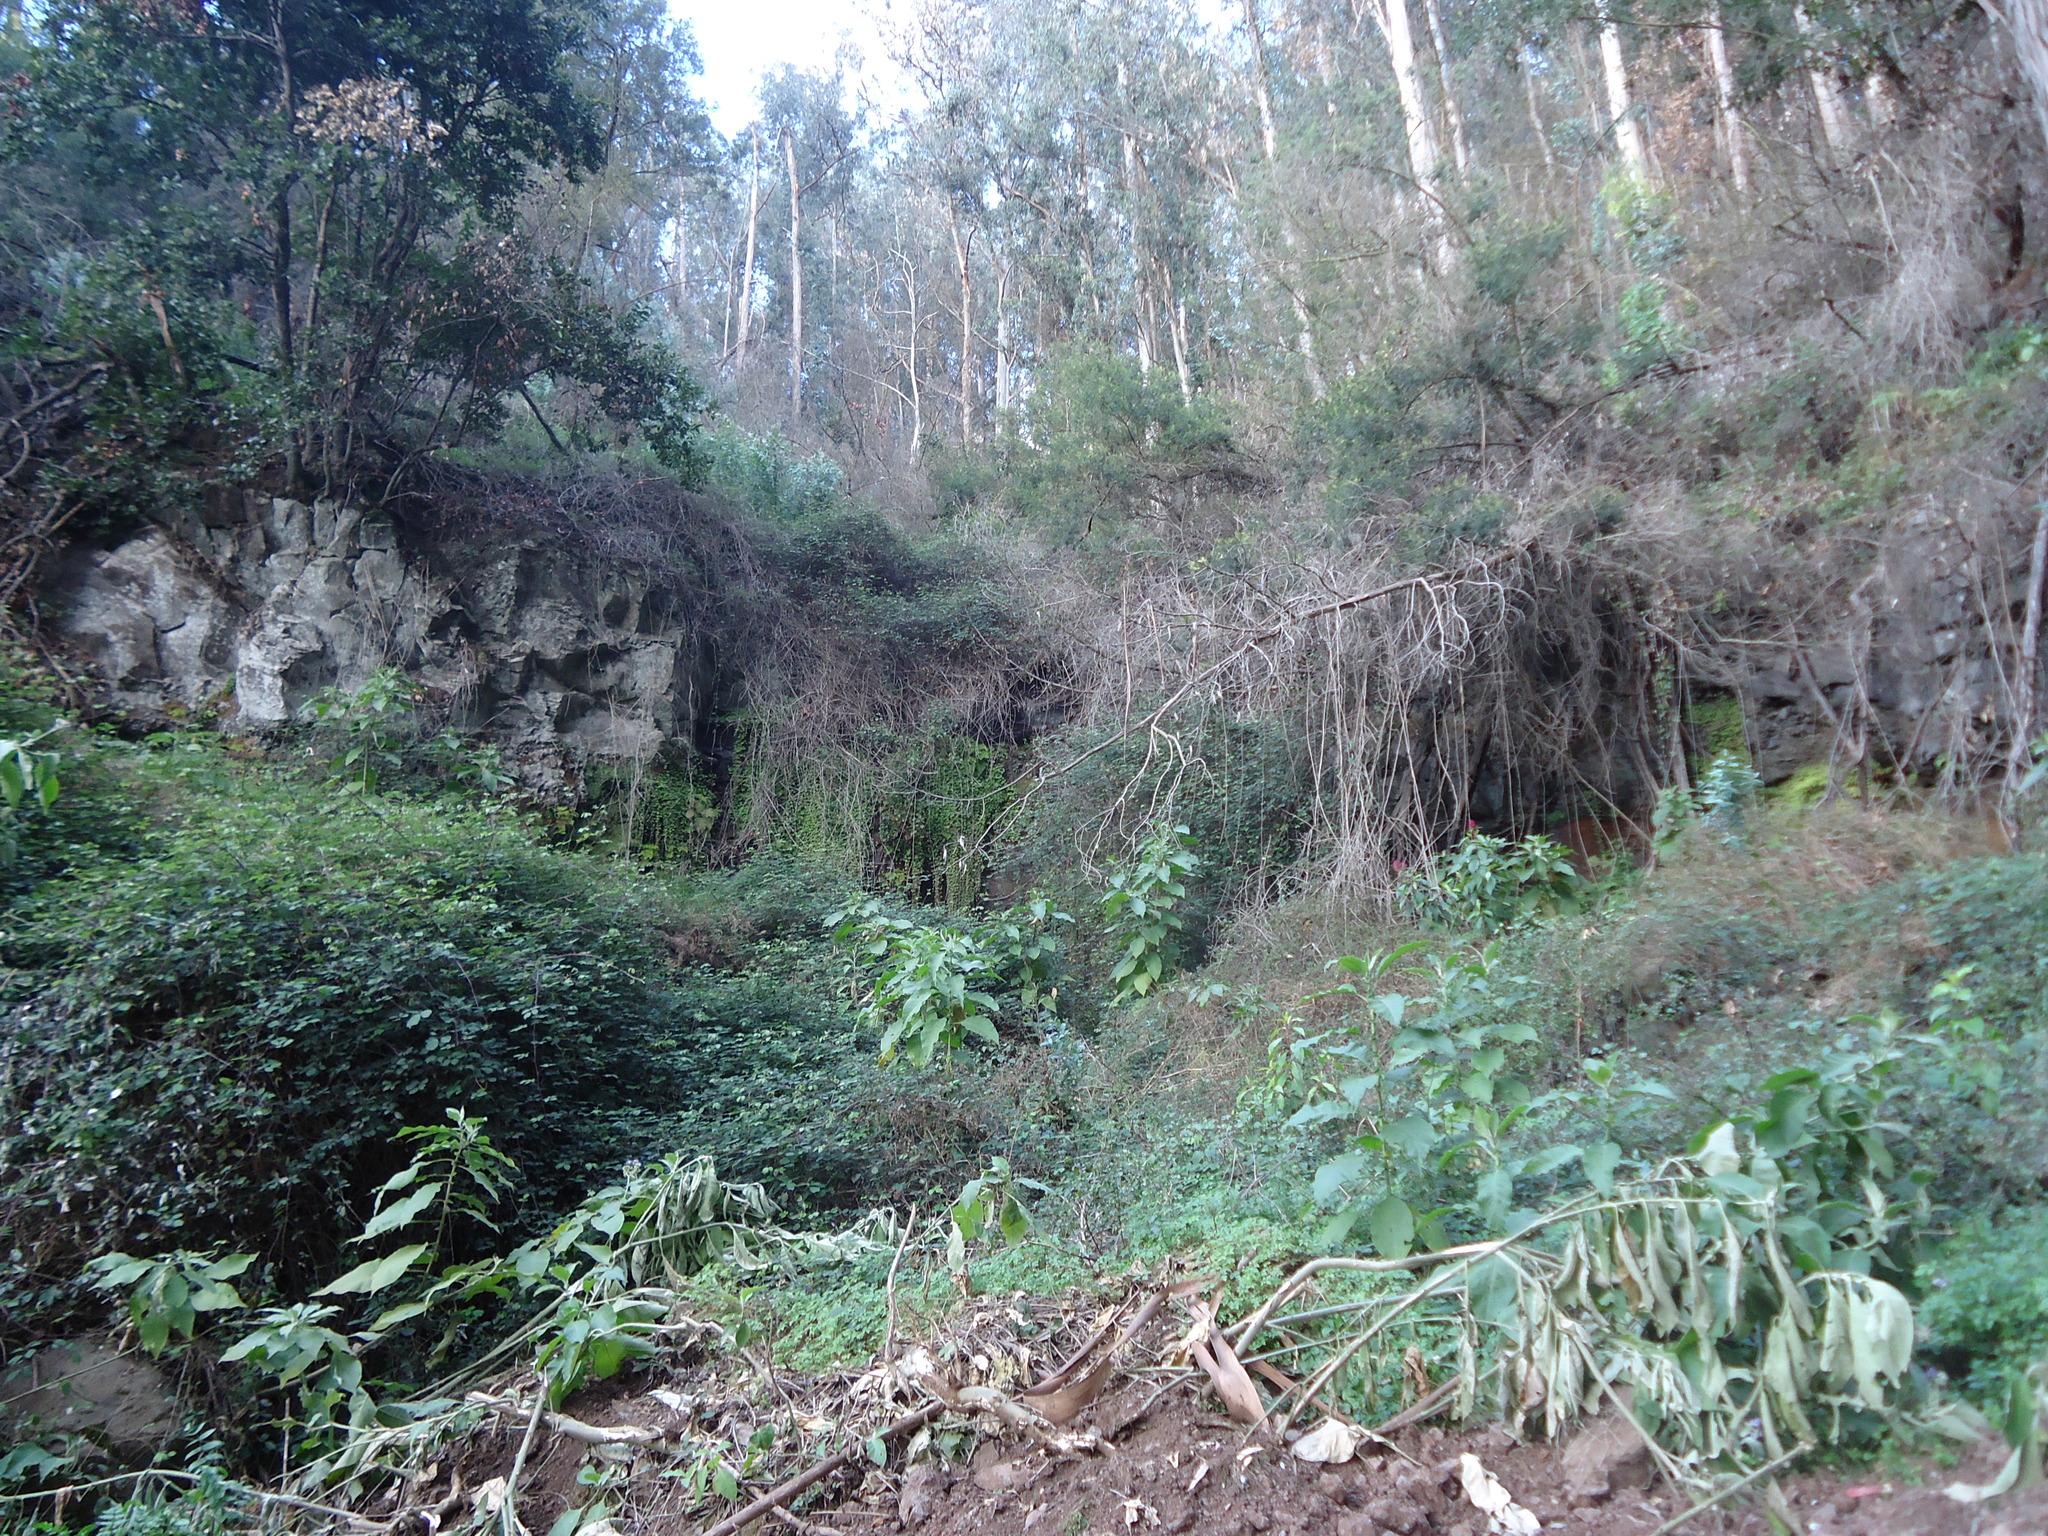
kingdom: Plantae
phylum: Tracheophyta
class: Magnoliopsida
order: Solanales
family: Solanaceae
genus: Solanum
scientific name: Solanum mauritianum
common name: Earleaf nightshade
